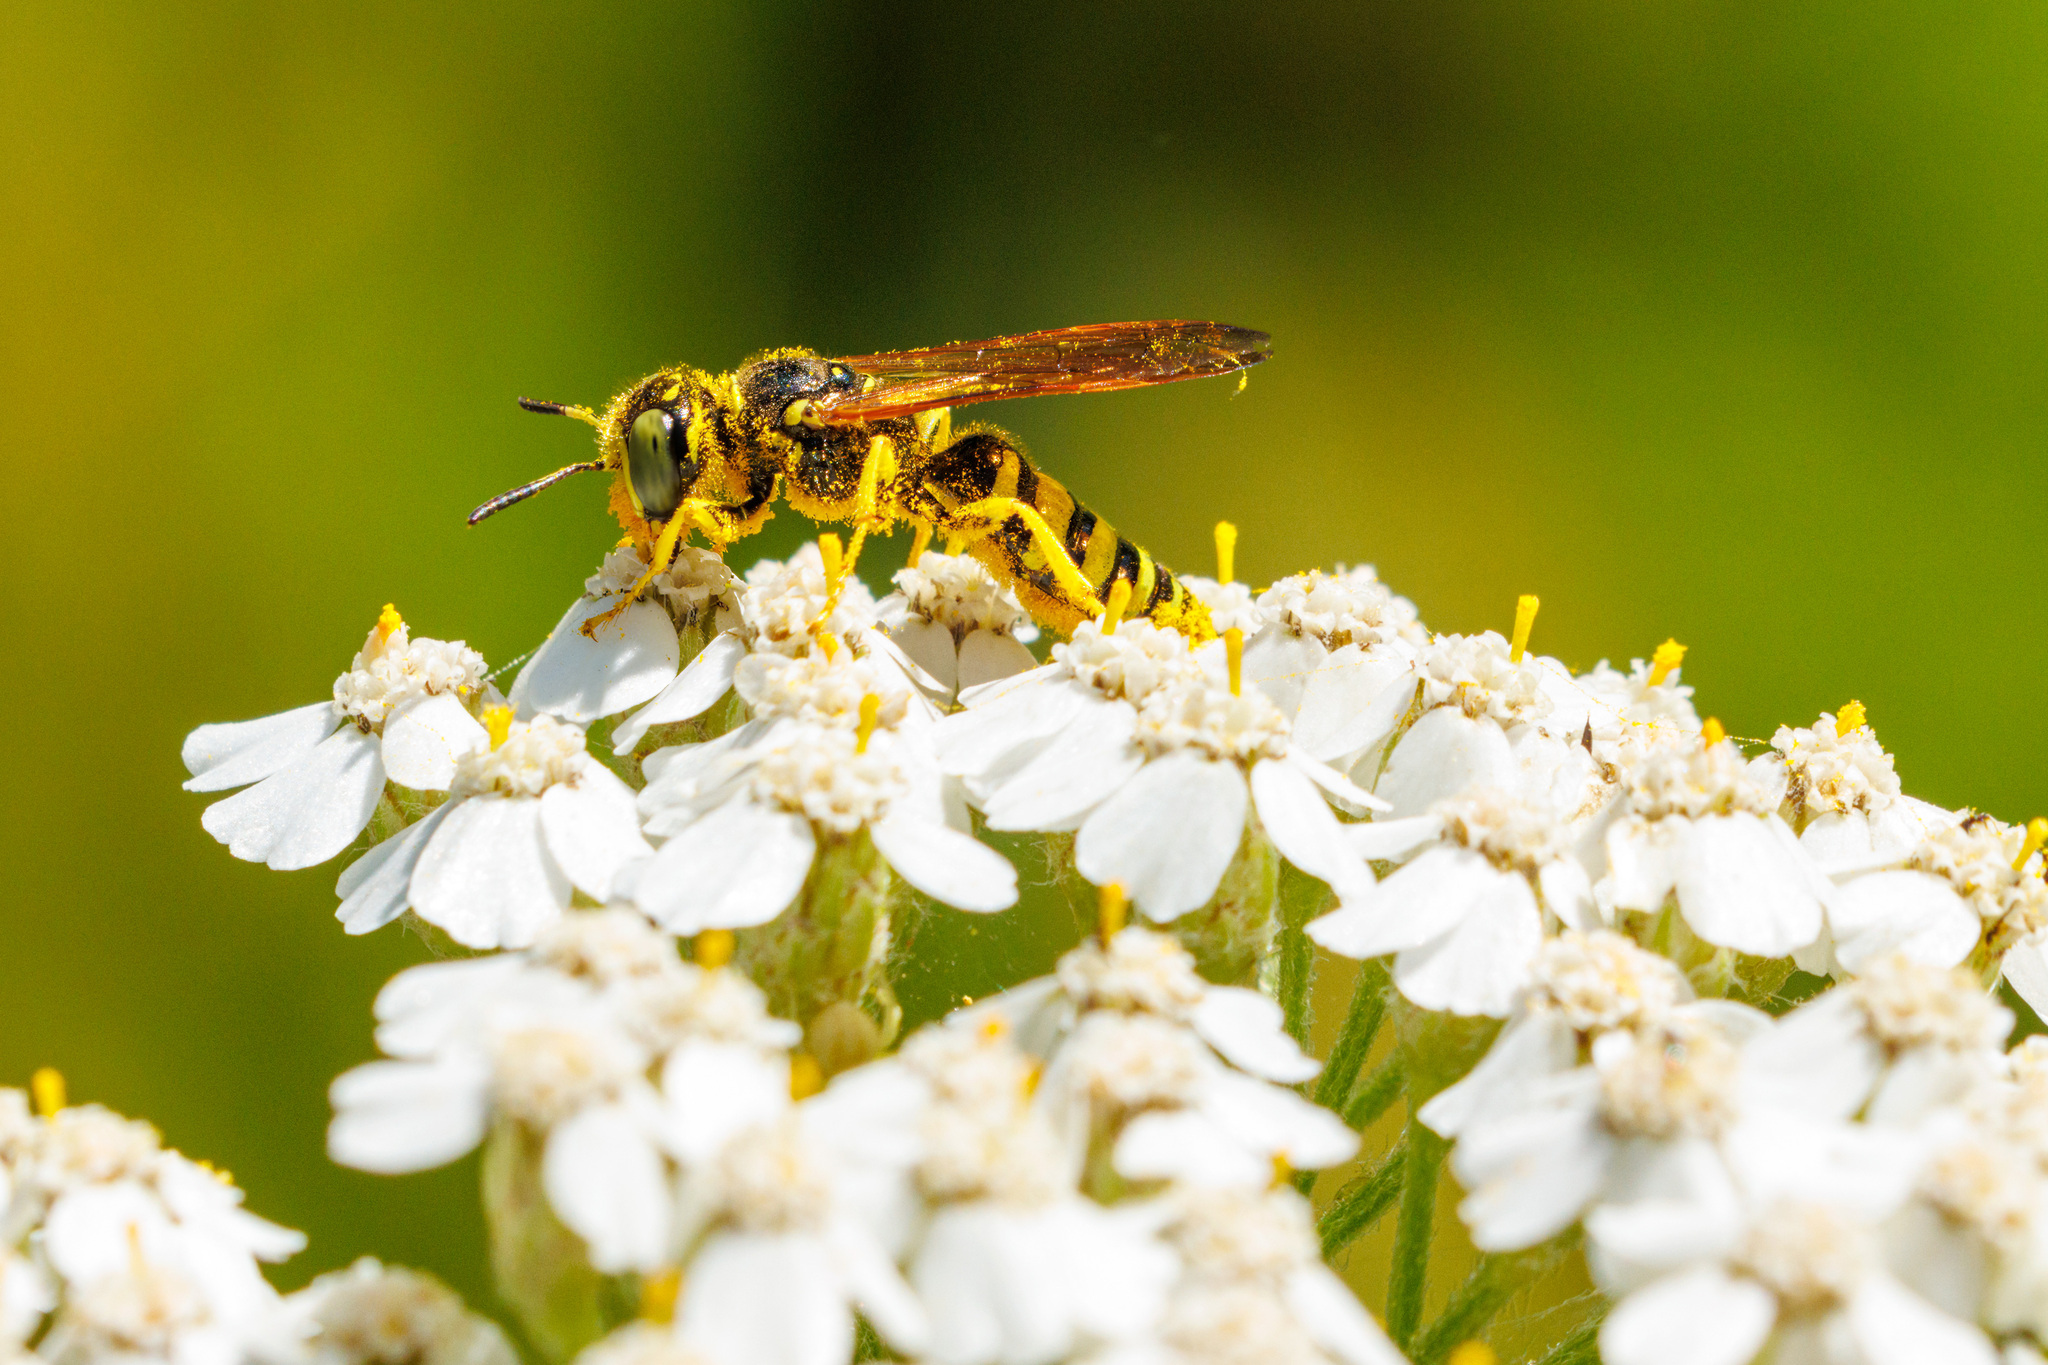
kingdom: Animalia
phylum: Arthropoda
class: Insecta
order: Hymenoptera
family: Crabronidae
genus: Philanthus
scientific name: Philanthus crabroniformis
